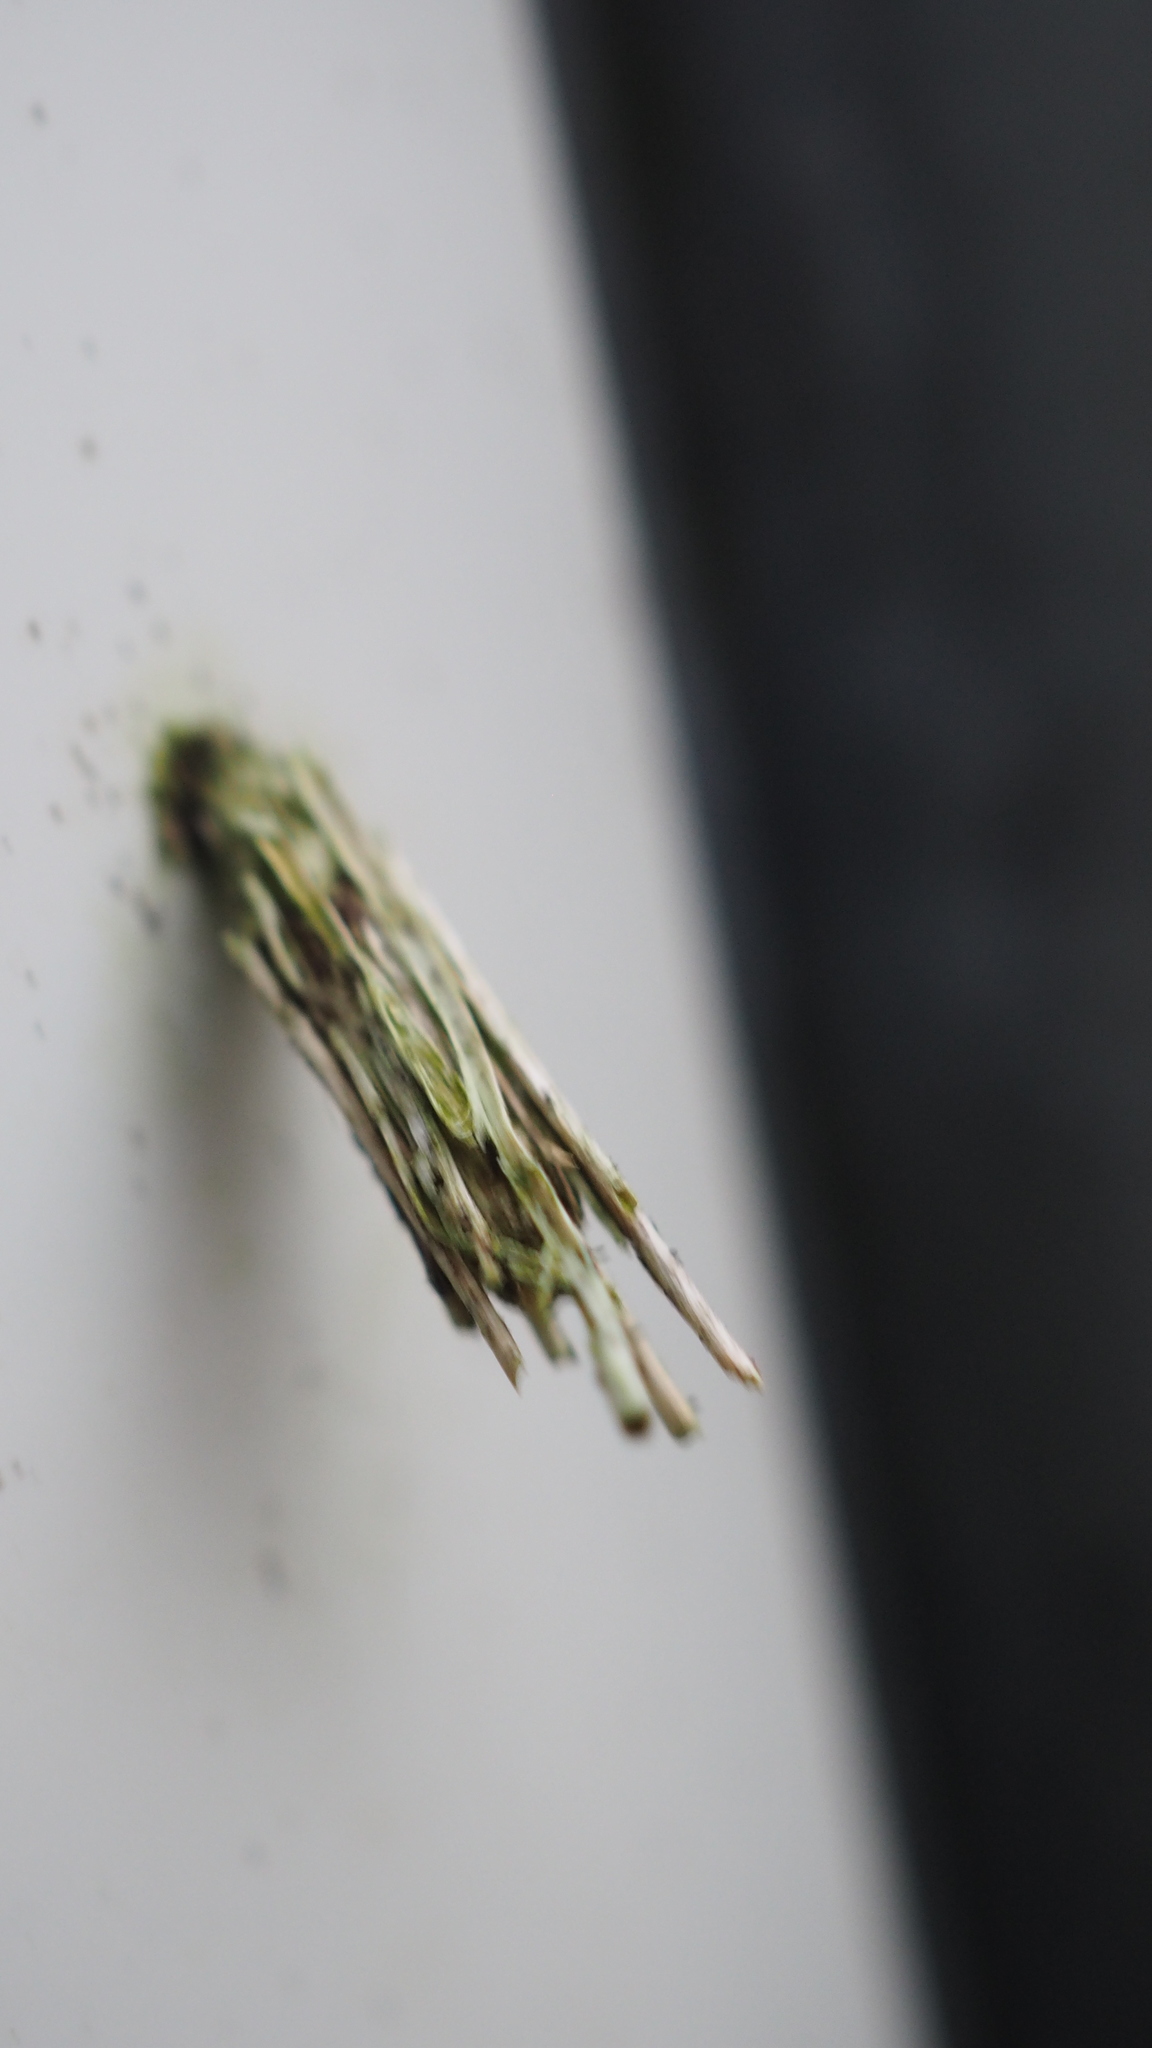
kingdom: Animalia
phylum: Arthropoda
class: Insecta
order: Lepidoptera
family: Psychidae
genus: Psyche
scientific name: Psyche casta
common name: Common sweep
